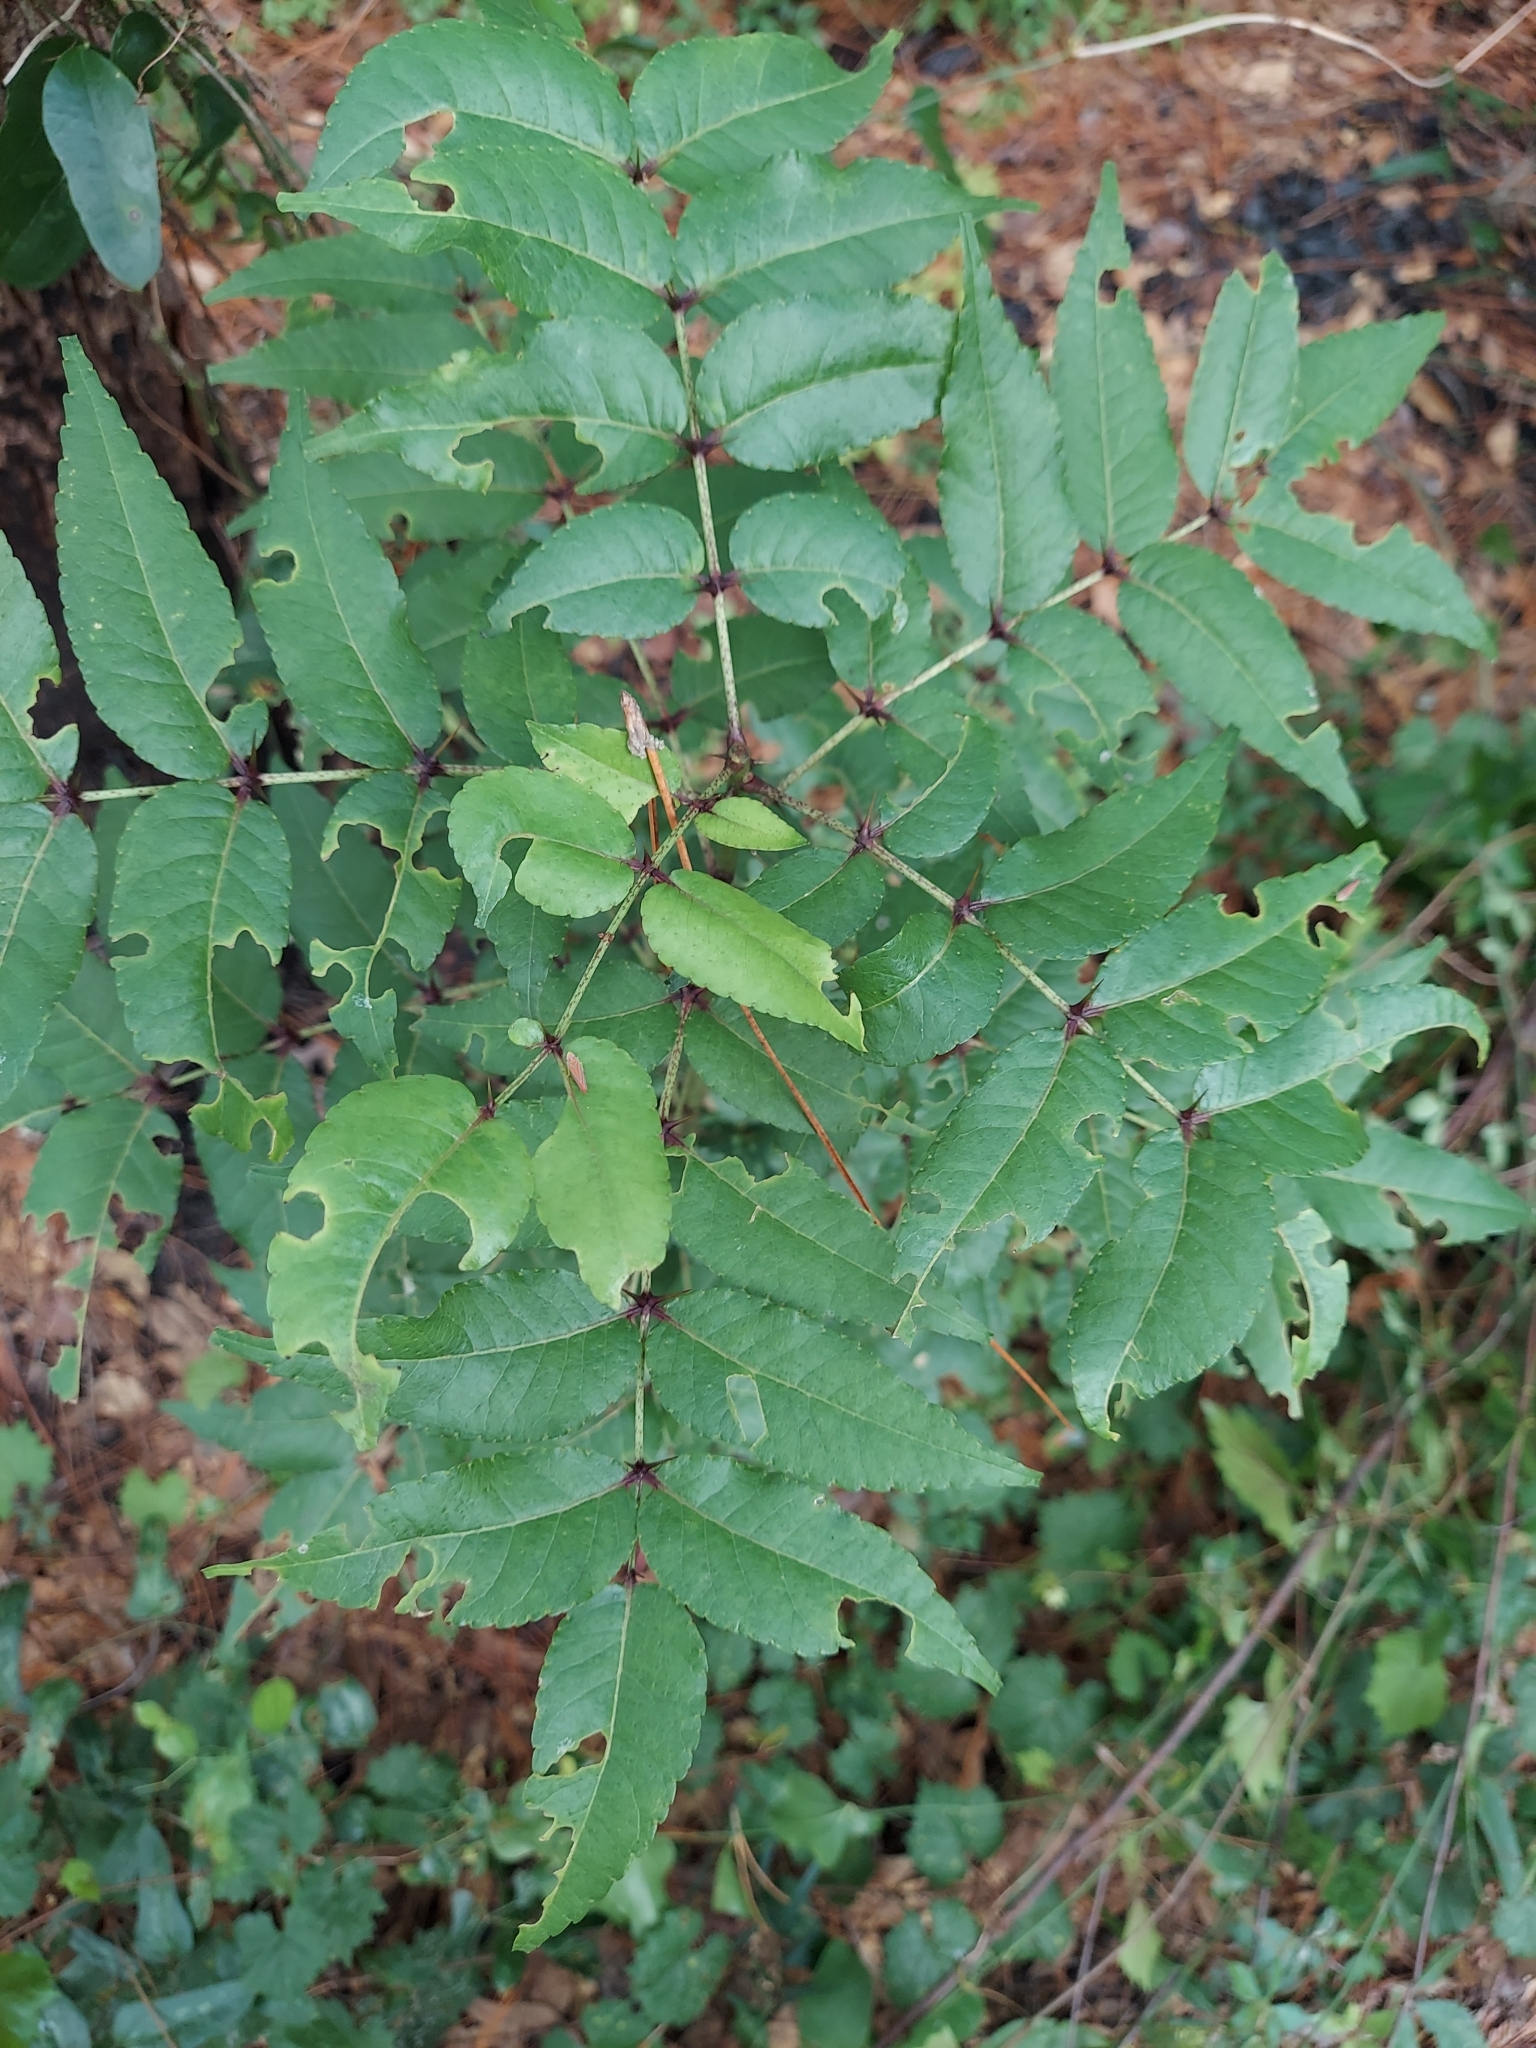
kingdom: Plantae
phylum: Tracheophyta
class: Magnoliopsida
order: Sapindales
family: Rutaceae
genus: Zanthoxylum
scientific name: Zanthoxylum clava-herculis
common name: Hercules'-club
